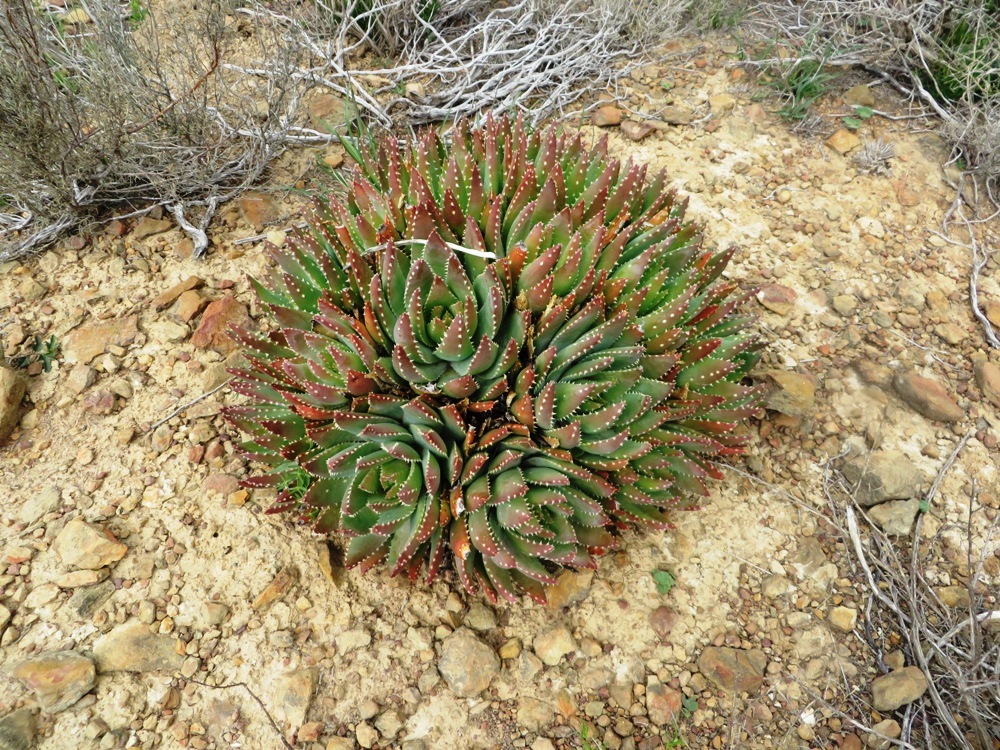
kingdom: Plantae
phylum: Tracheophyta
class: Liliopsida
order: Asparagales
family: Asphodelaceae
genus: Aloe
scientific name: Aloe brevifolia
